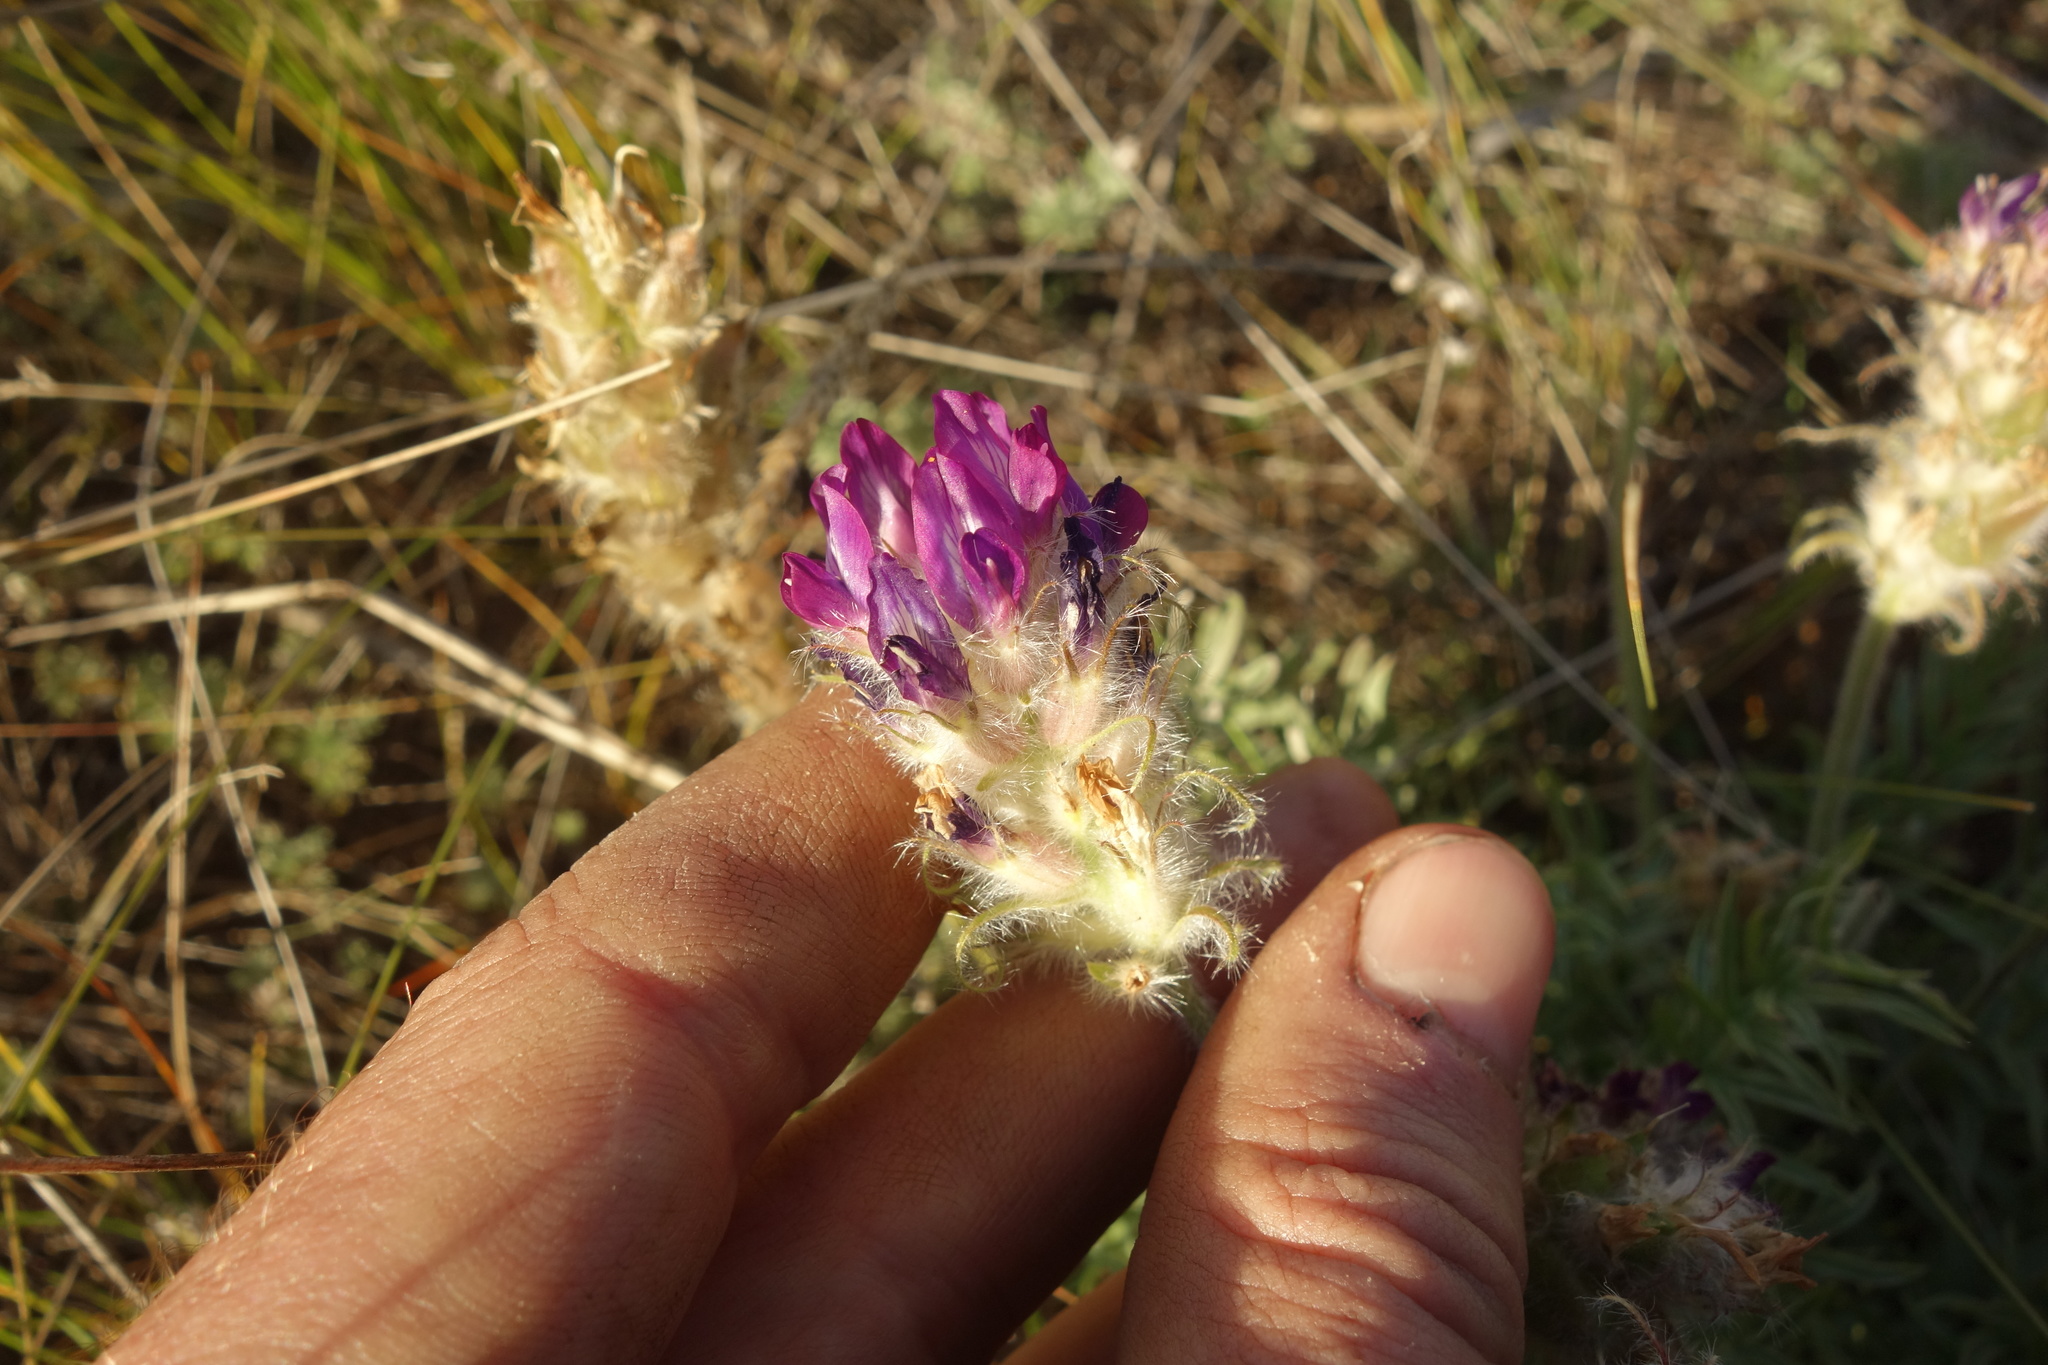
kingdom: Plantae
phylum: Tracheophyta
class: Magnoliopsida
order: Fabales
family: Fabaceae
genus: Oxytropis
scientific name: Oxytropis turczaninovii
